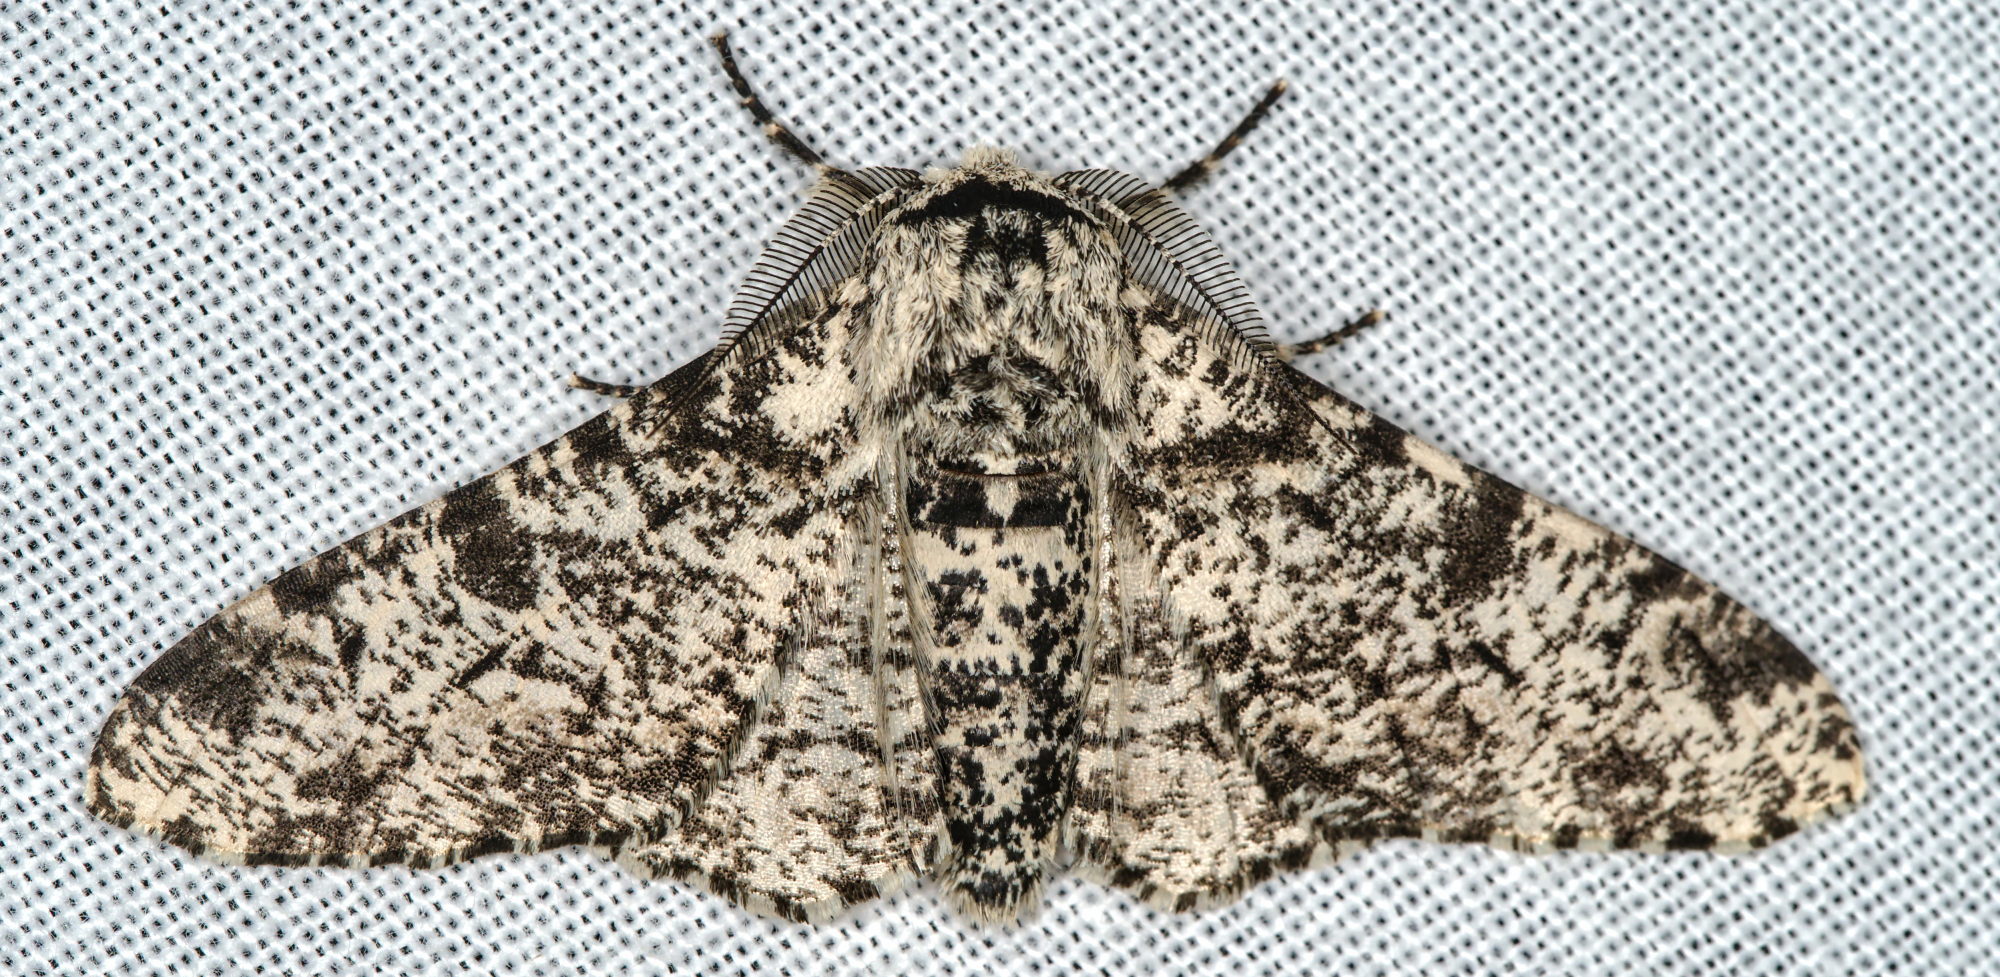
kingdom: Animalia
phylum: Arthropoda
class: Insecta
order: Lepidoptera
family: Geometridae
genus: Biston
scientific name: Biston betularia
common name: Peppered moth
